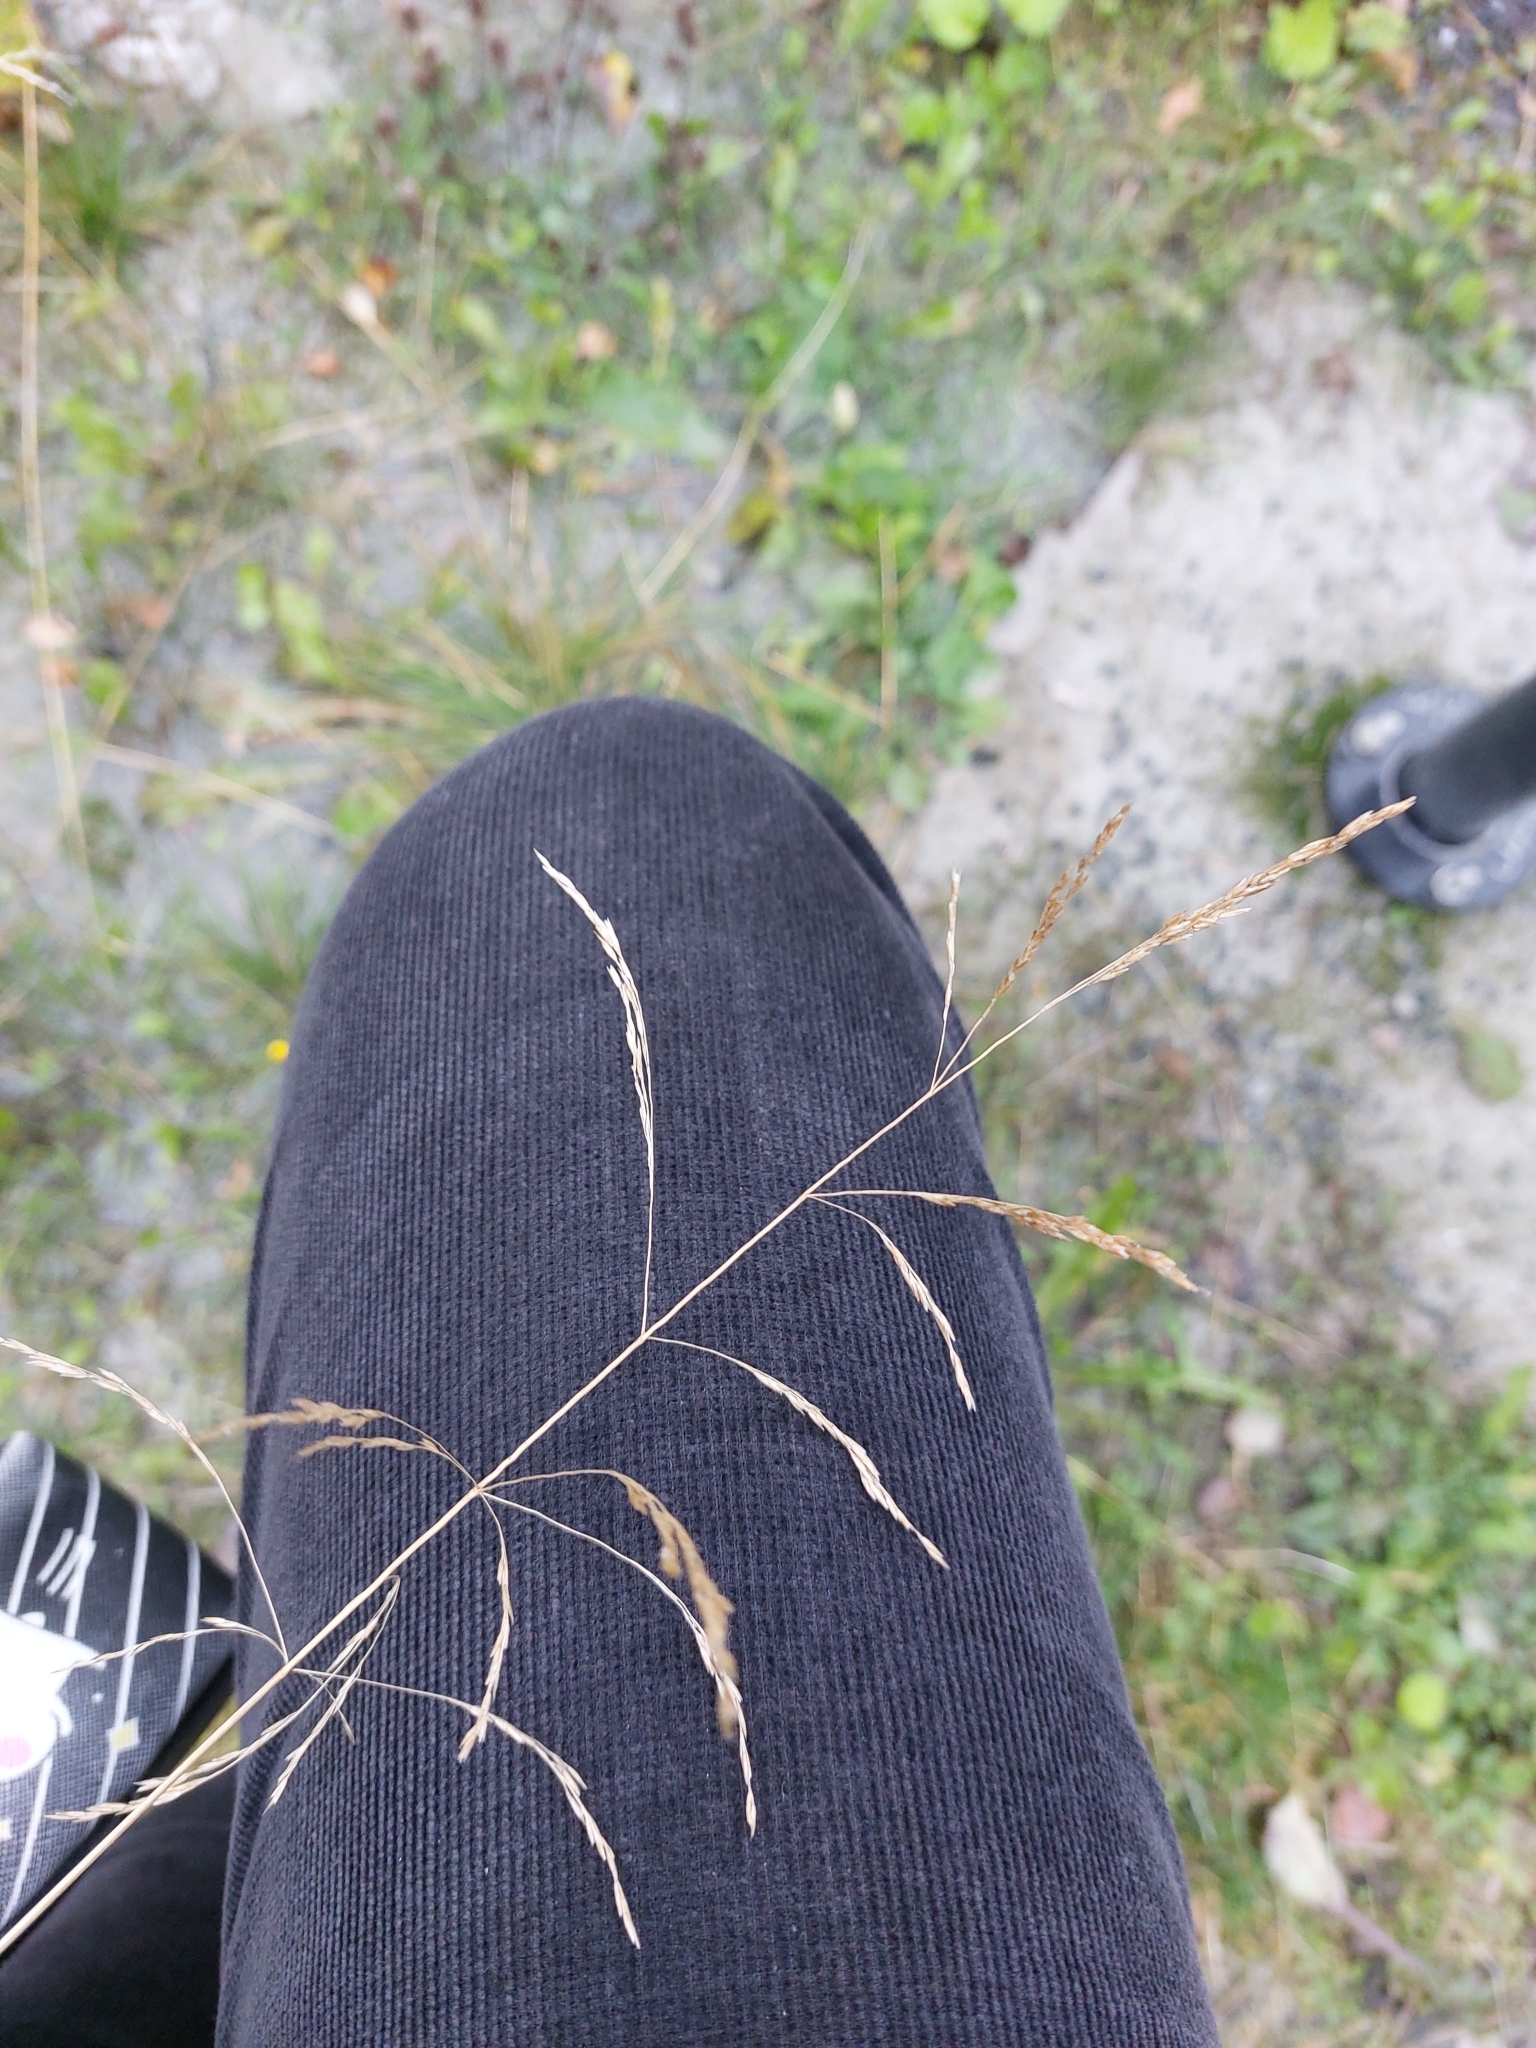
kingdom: Plantae
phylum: Tracheophyta
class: Liliopsida
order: Poales
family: Poaceae
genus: Deschampsia
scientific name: Deschampsia cespitosa
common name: Tufted hair-grass
